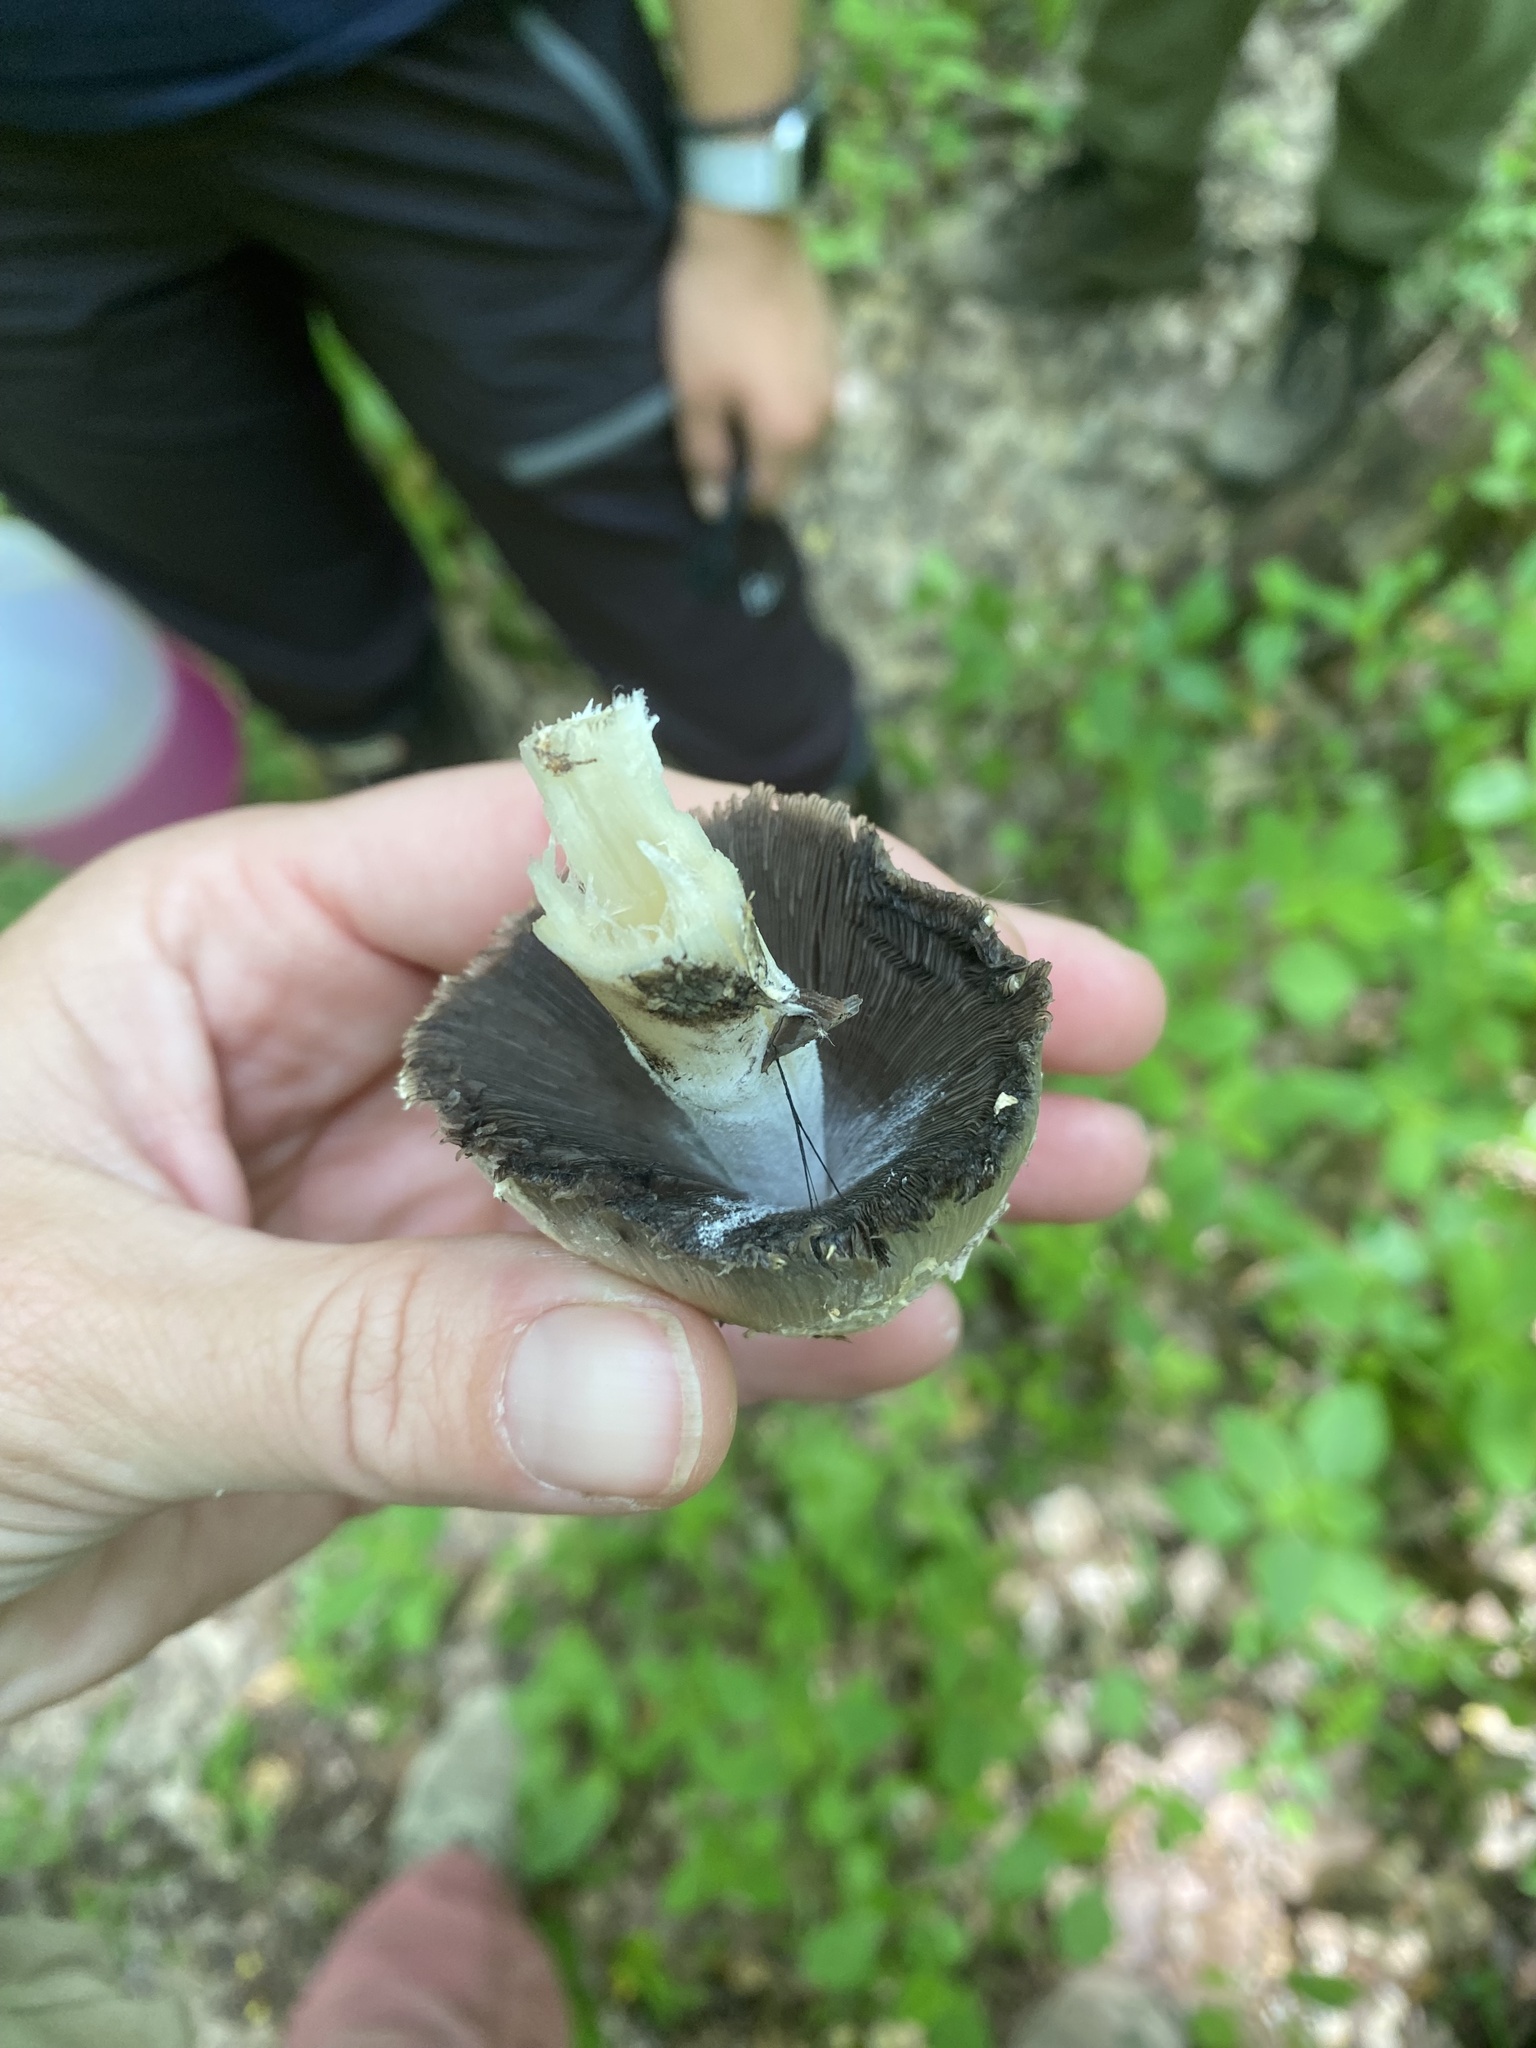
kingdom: Fungi
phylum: Basidiomycota
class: Agaricomycetes
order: Agaricales
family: Psathyrellaceae
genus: Coprinopsis
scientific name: Coprinopsis variegata
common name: Scaly ink cap
